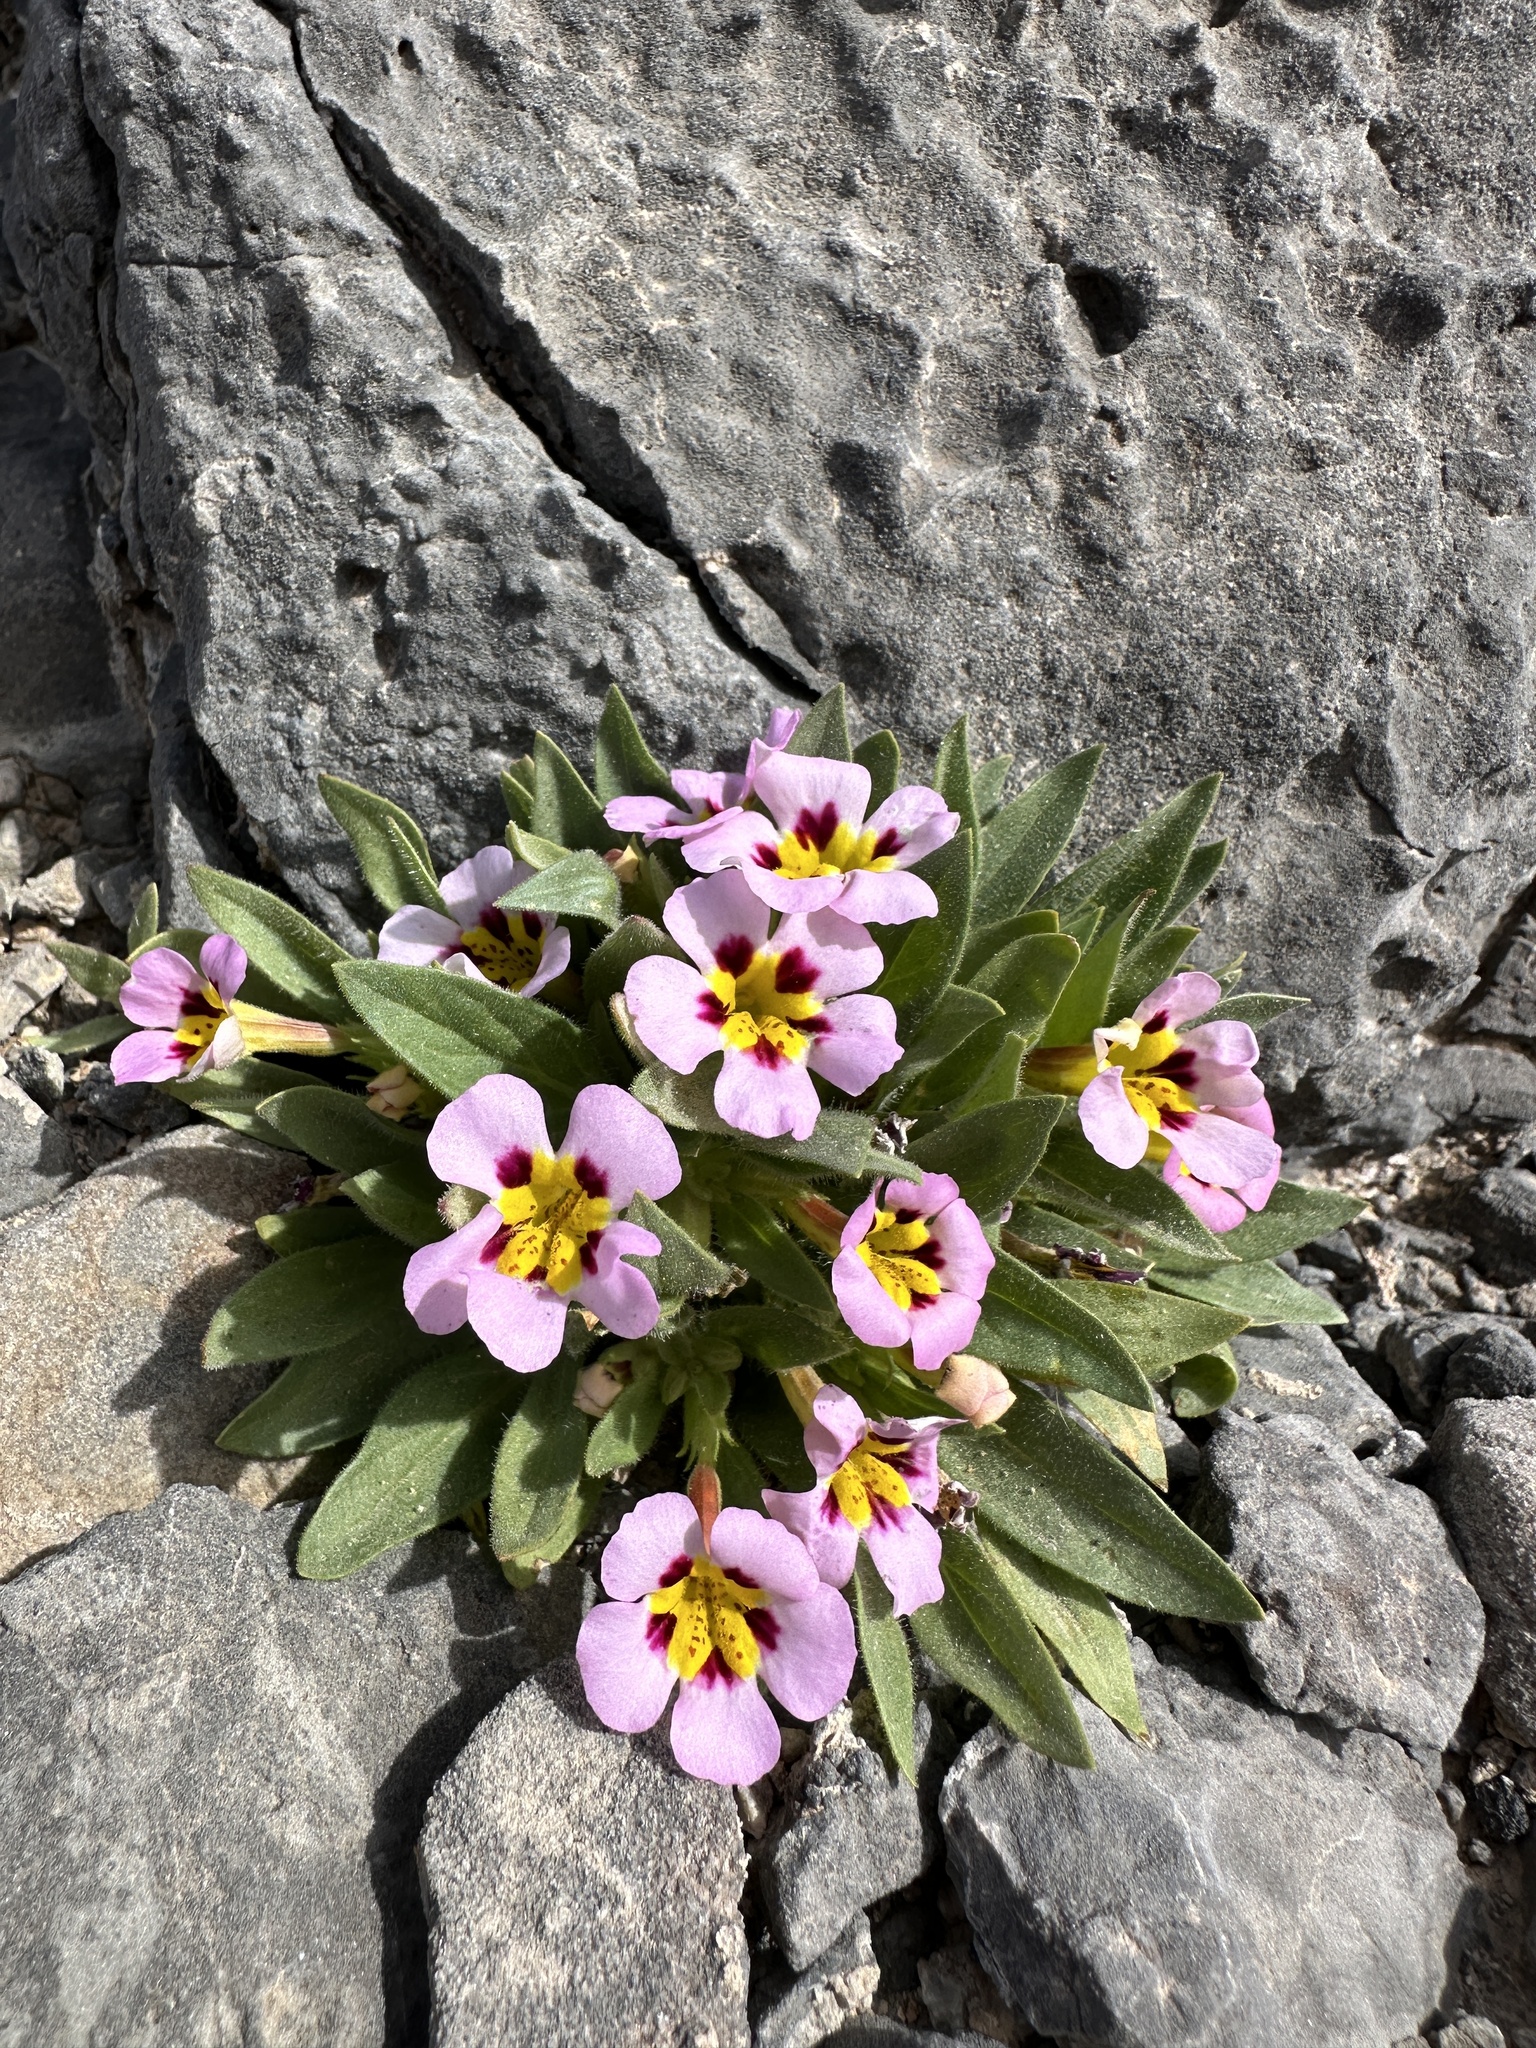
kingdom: Plantae
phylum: Tracheophyta
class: Magnoliopsida
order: Lamiales
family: Phrymaceae
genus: Diplacus
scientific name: Diplacus rupicola
